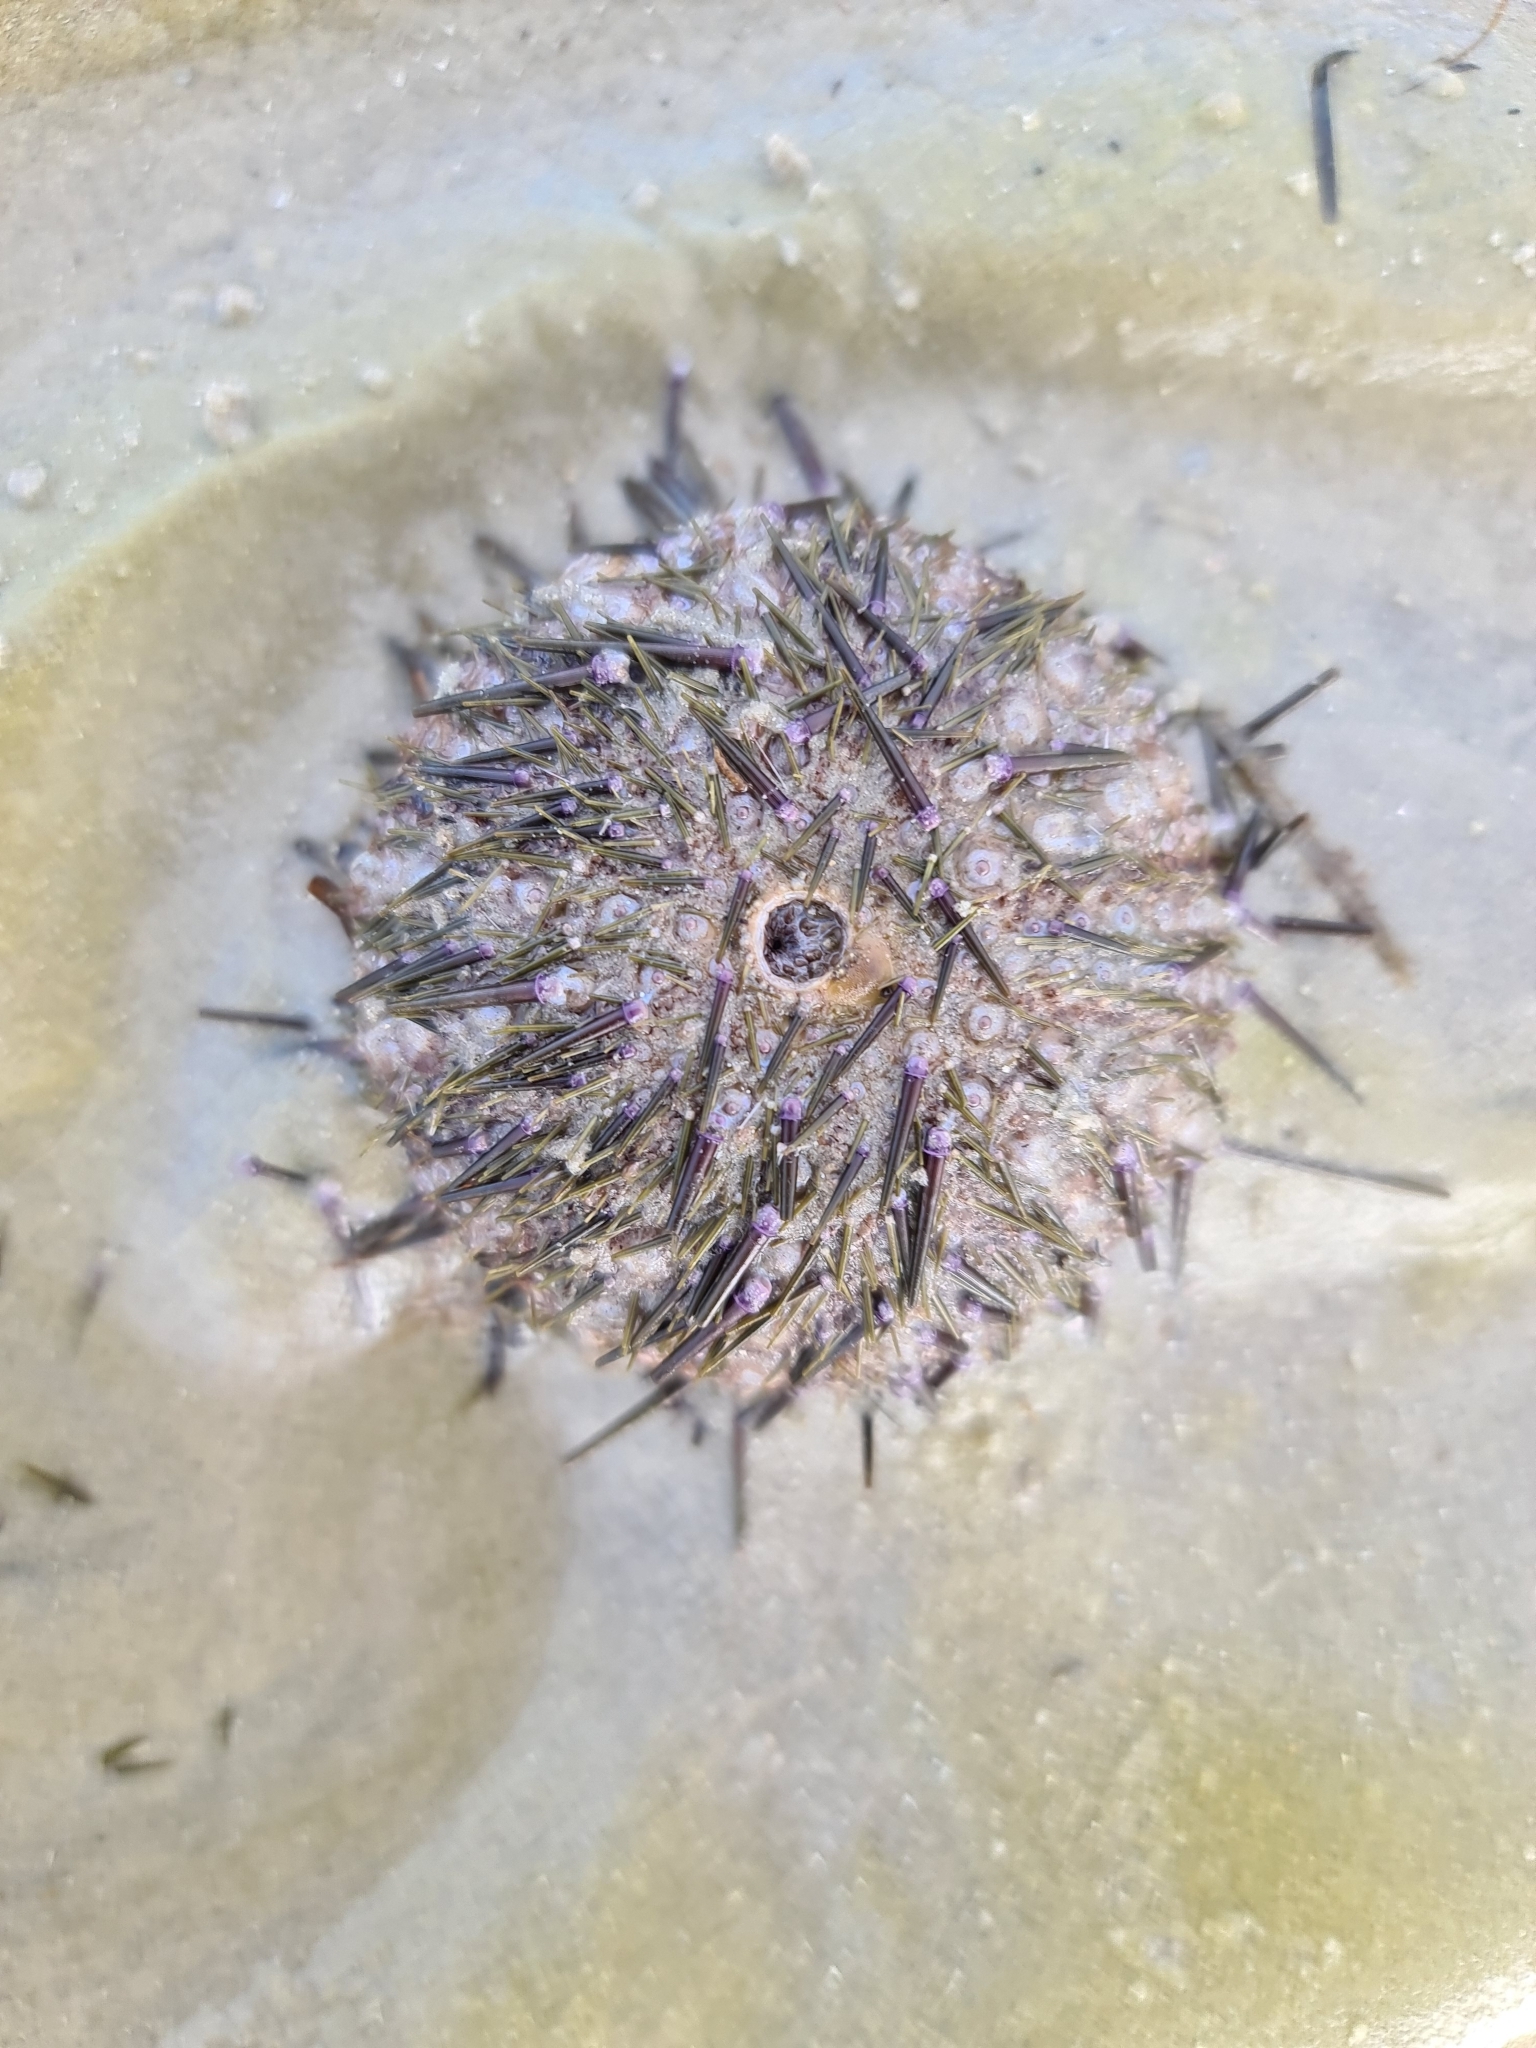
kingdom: Animalia
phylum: Echinodermata
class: Echinoidea
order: Camarodonta
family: Echinometridae
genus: Heliocidaris
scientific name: Heliocidaris erythrogramma
